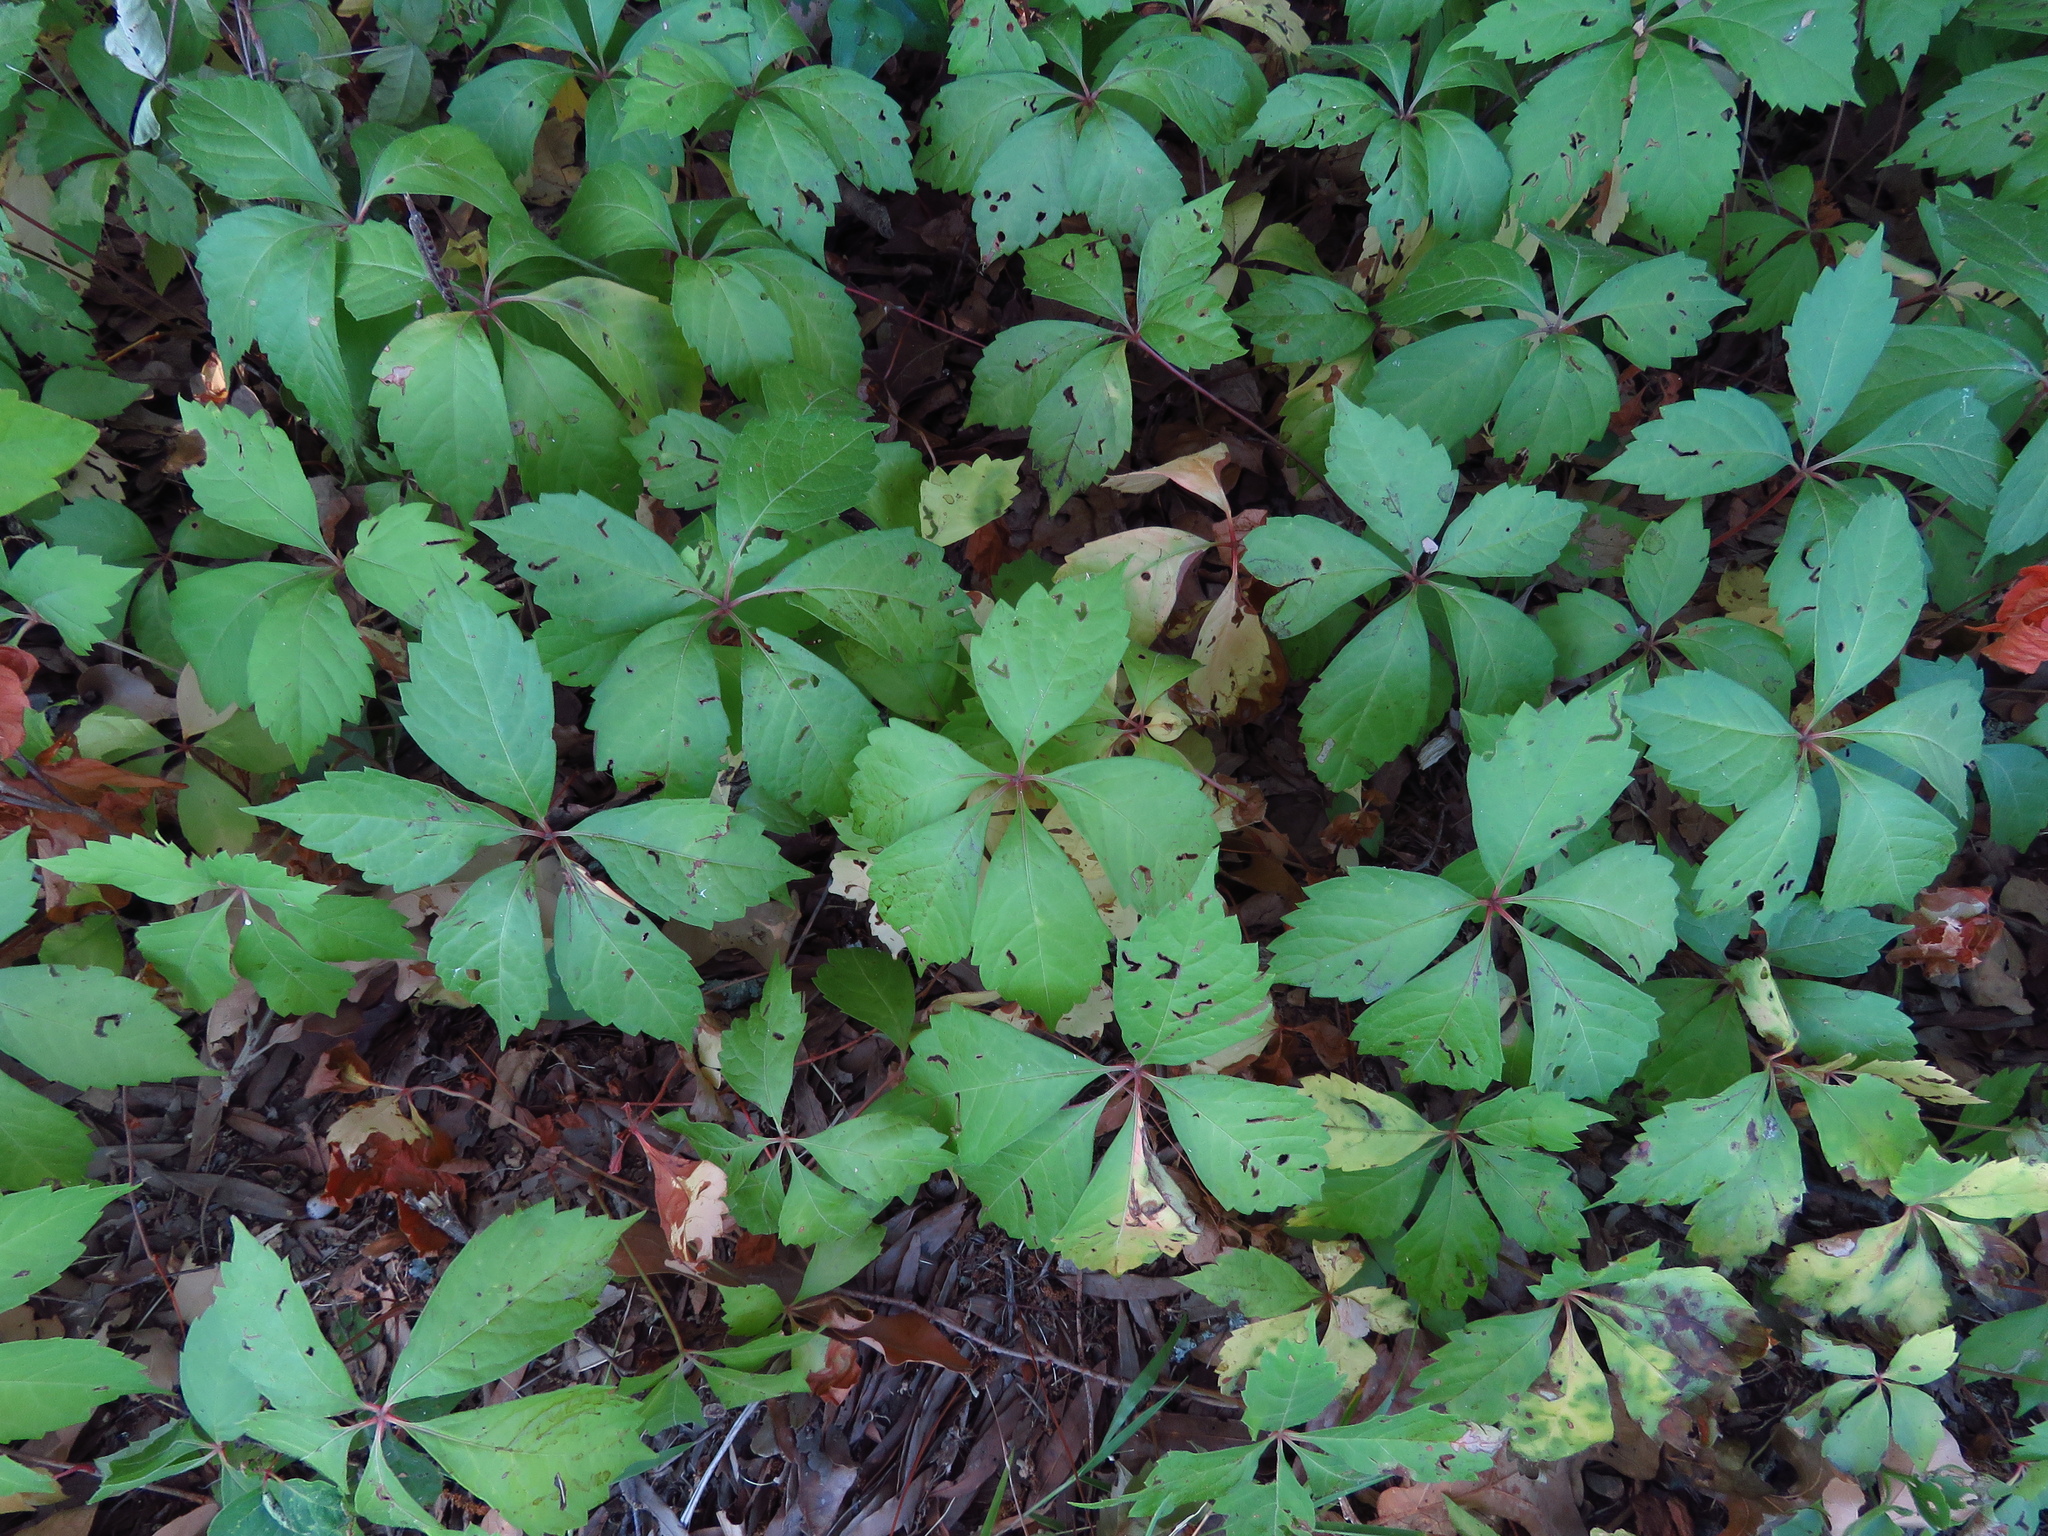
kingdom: Plantae
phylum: Tracheophyta
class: Magnoliopsida
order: Vitales
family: Vitaceae
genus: Parthenocissus
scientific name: Parthenocissus quinquefolia
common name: Virginia-creeper
